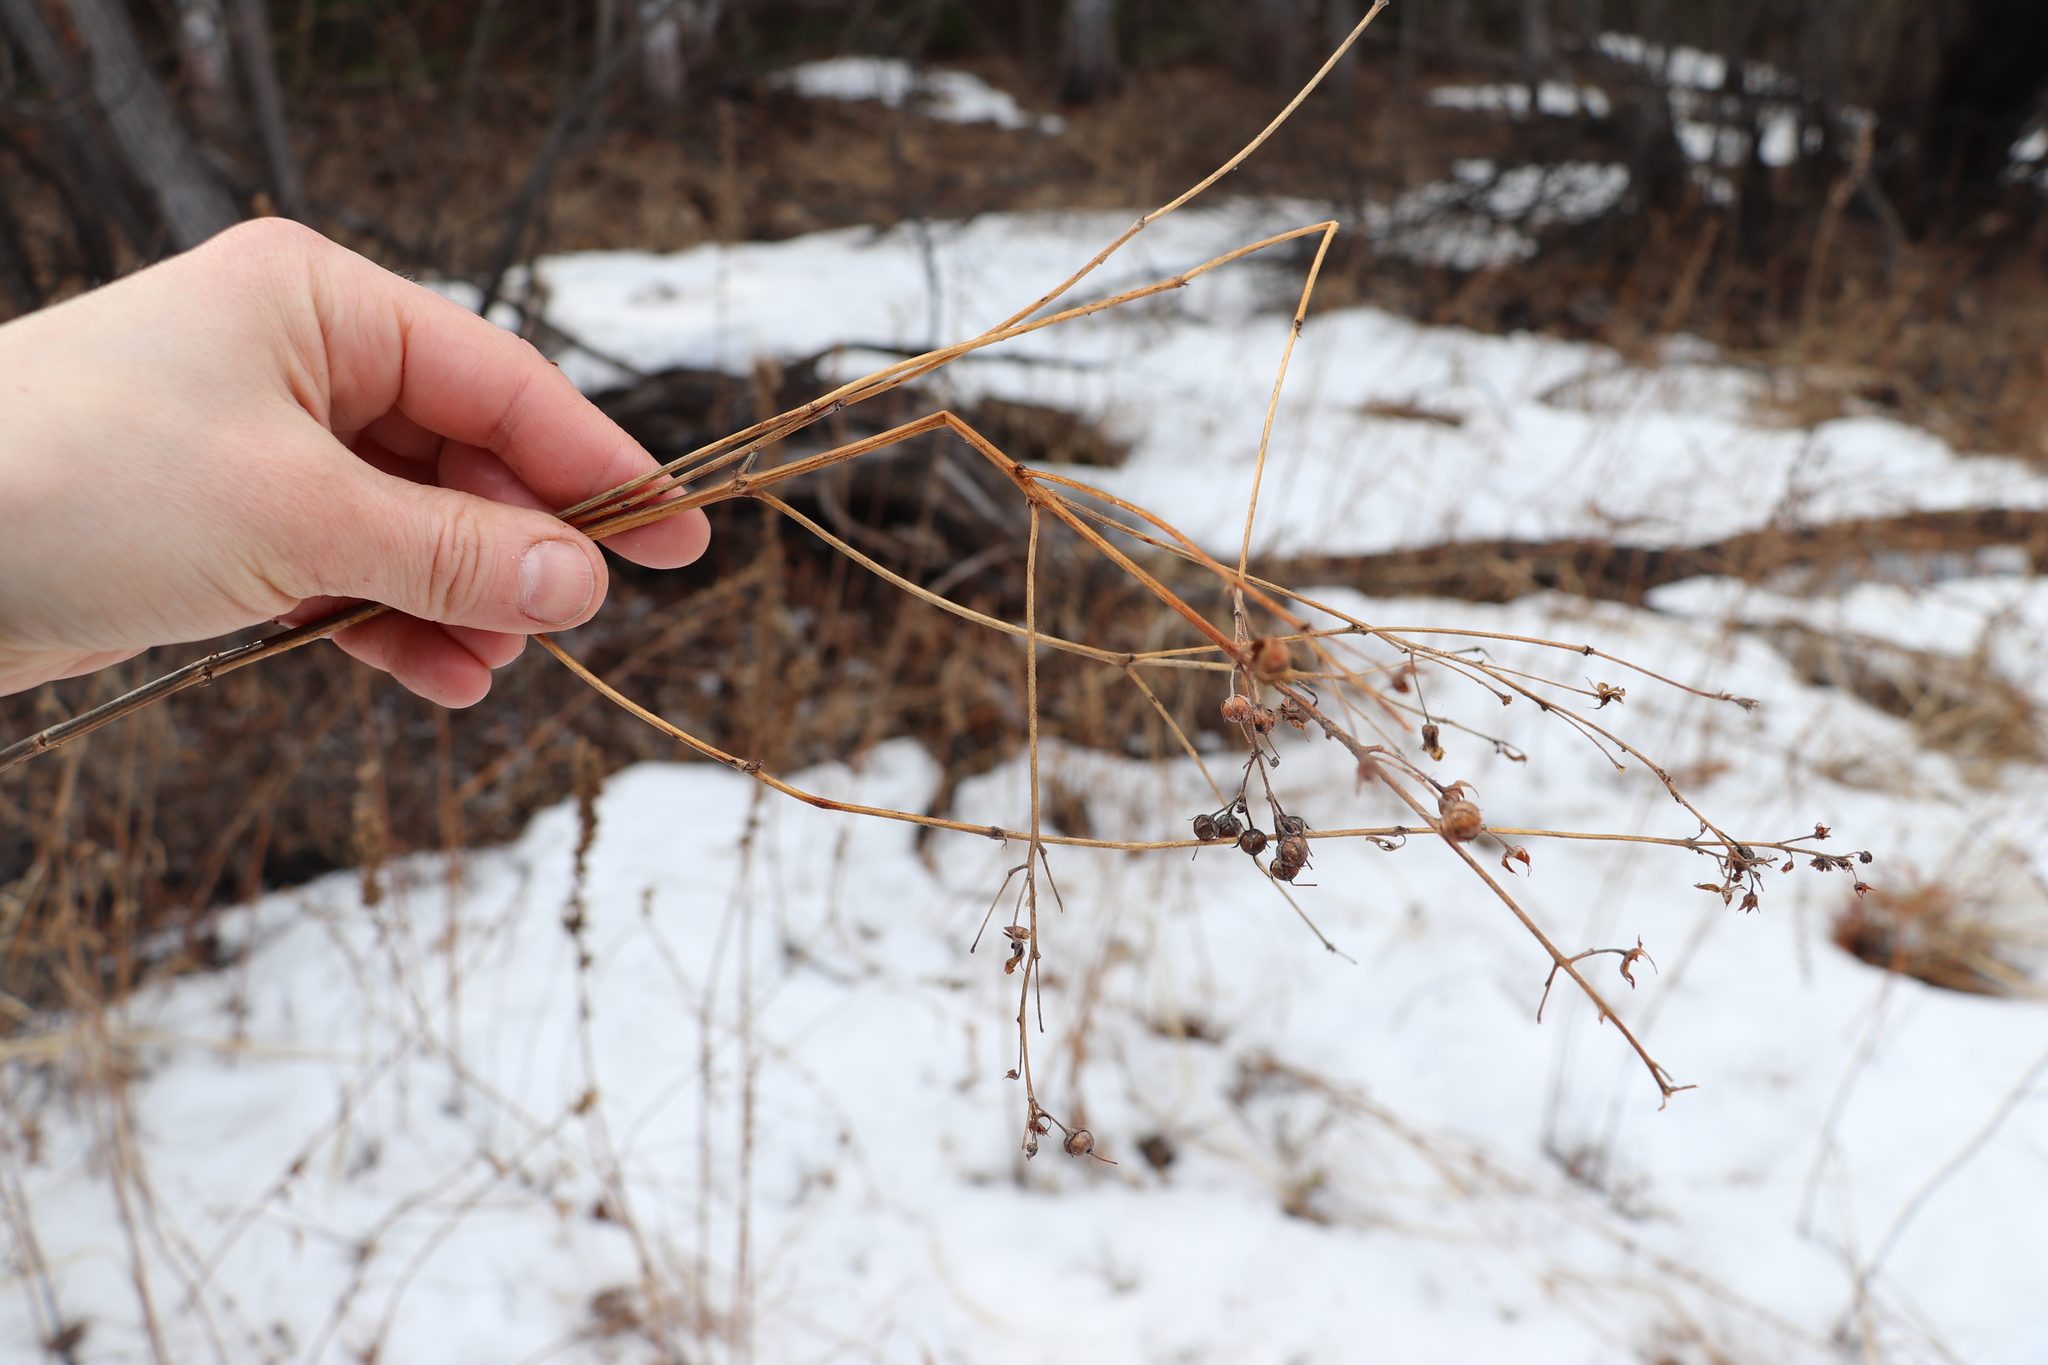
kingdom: Plantae
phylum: Tracheophyta
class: Magnoliopsida
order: Ericales
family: Primulaceae
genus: Lysimachia
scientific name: Lysimachia vulgaris
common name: Yellow loosestrife
